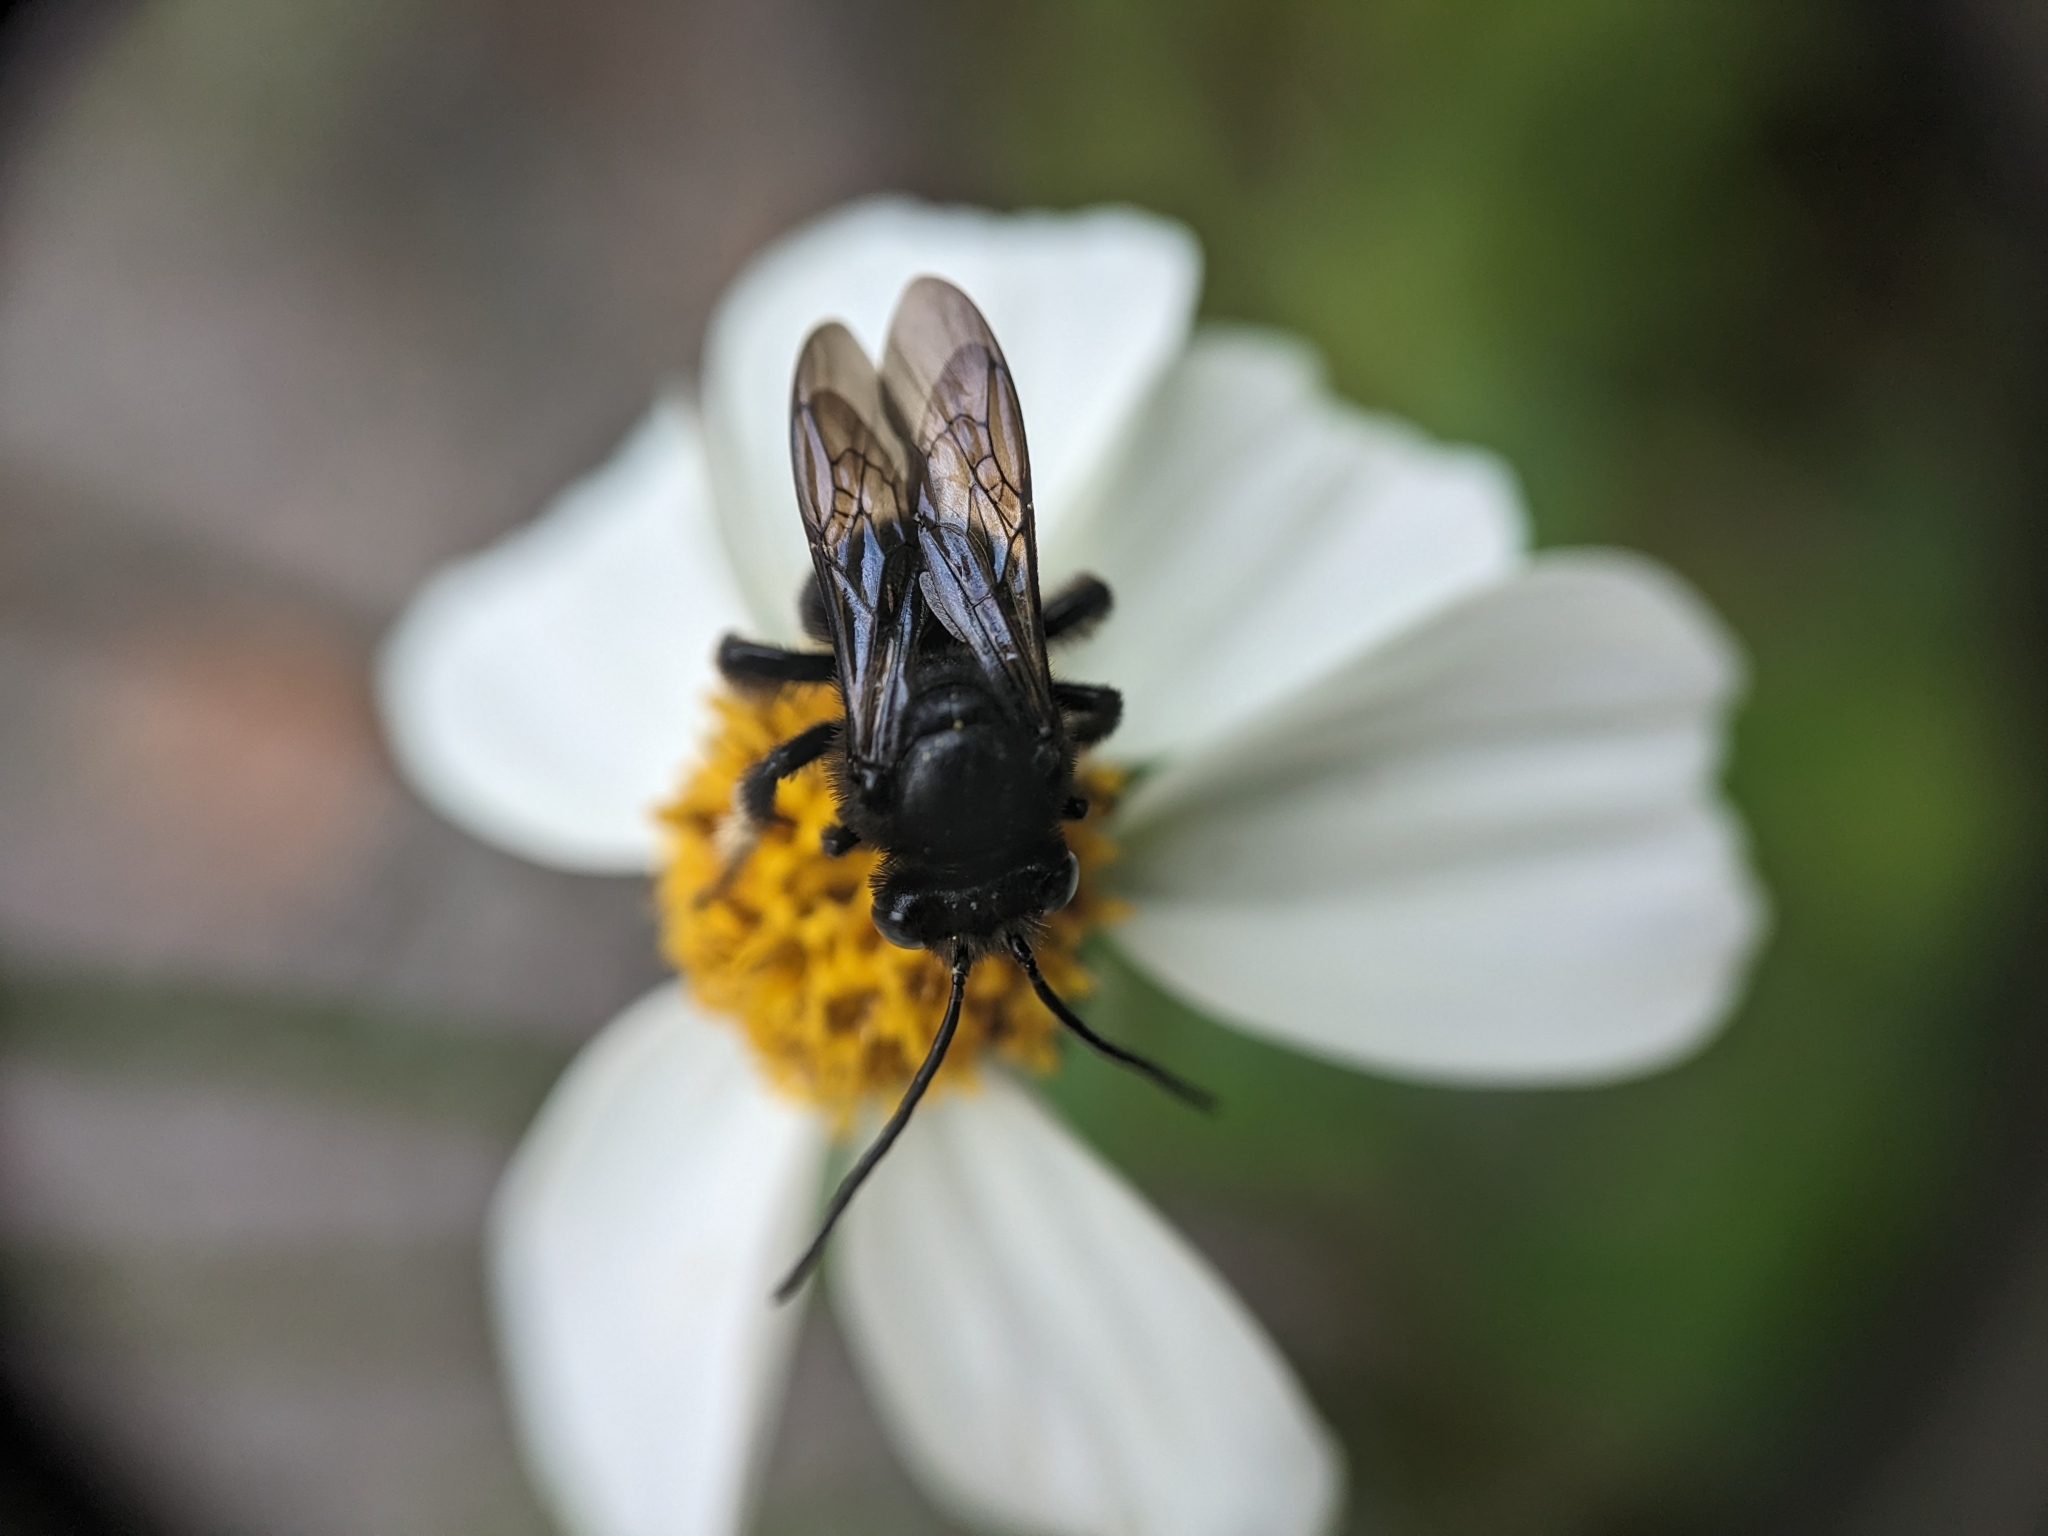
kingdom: Animalia
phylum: Arthropoda
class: Insecta
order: Hymenoptera
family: Apidae
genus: Melissodes
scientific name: Melissodes bimaculatus
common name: Two-spotted long-horned bee
